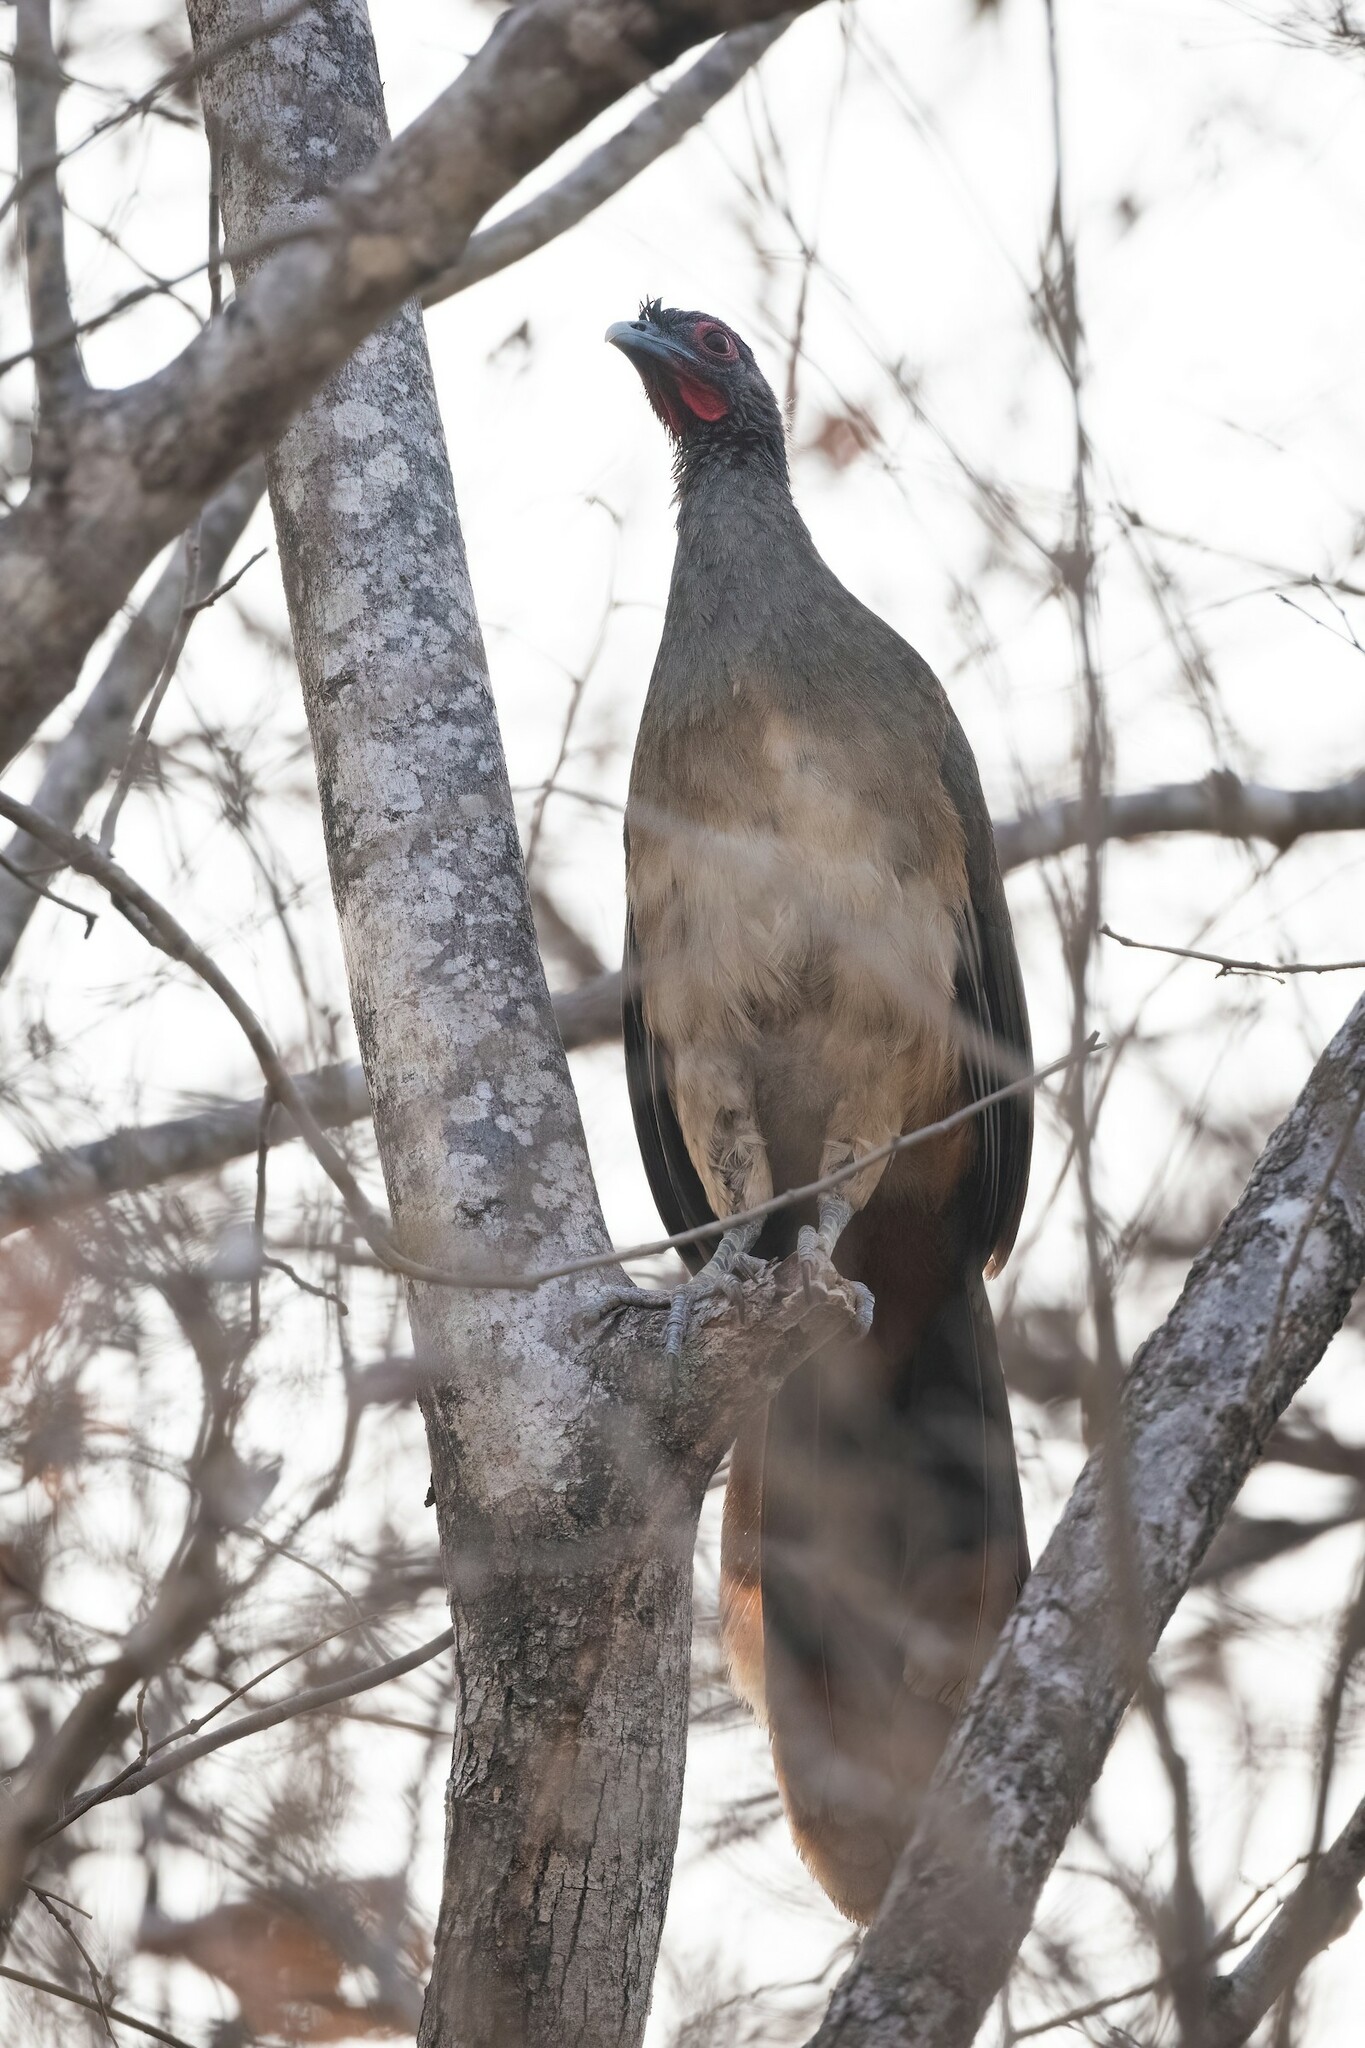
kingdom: Animalia
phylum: Chordata
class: Aves
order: Galliformes
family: Cracidae
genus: Ortalis
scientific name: Ortalis poliocephala
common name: West mexican chachalaca
